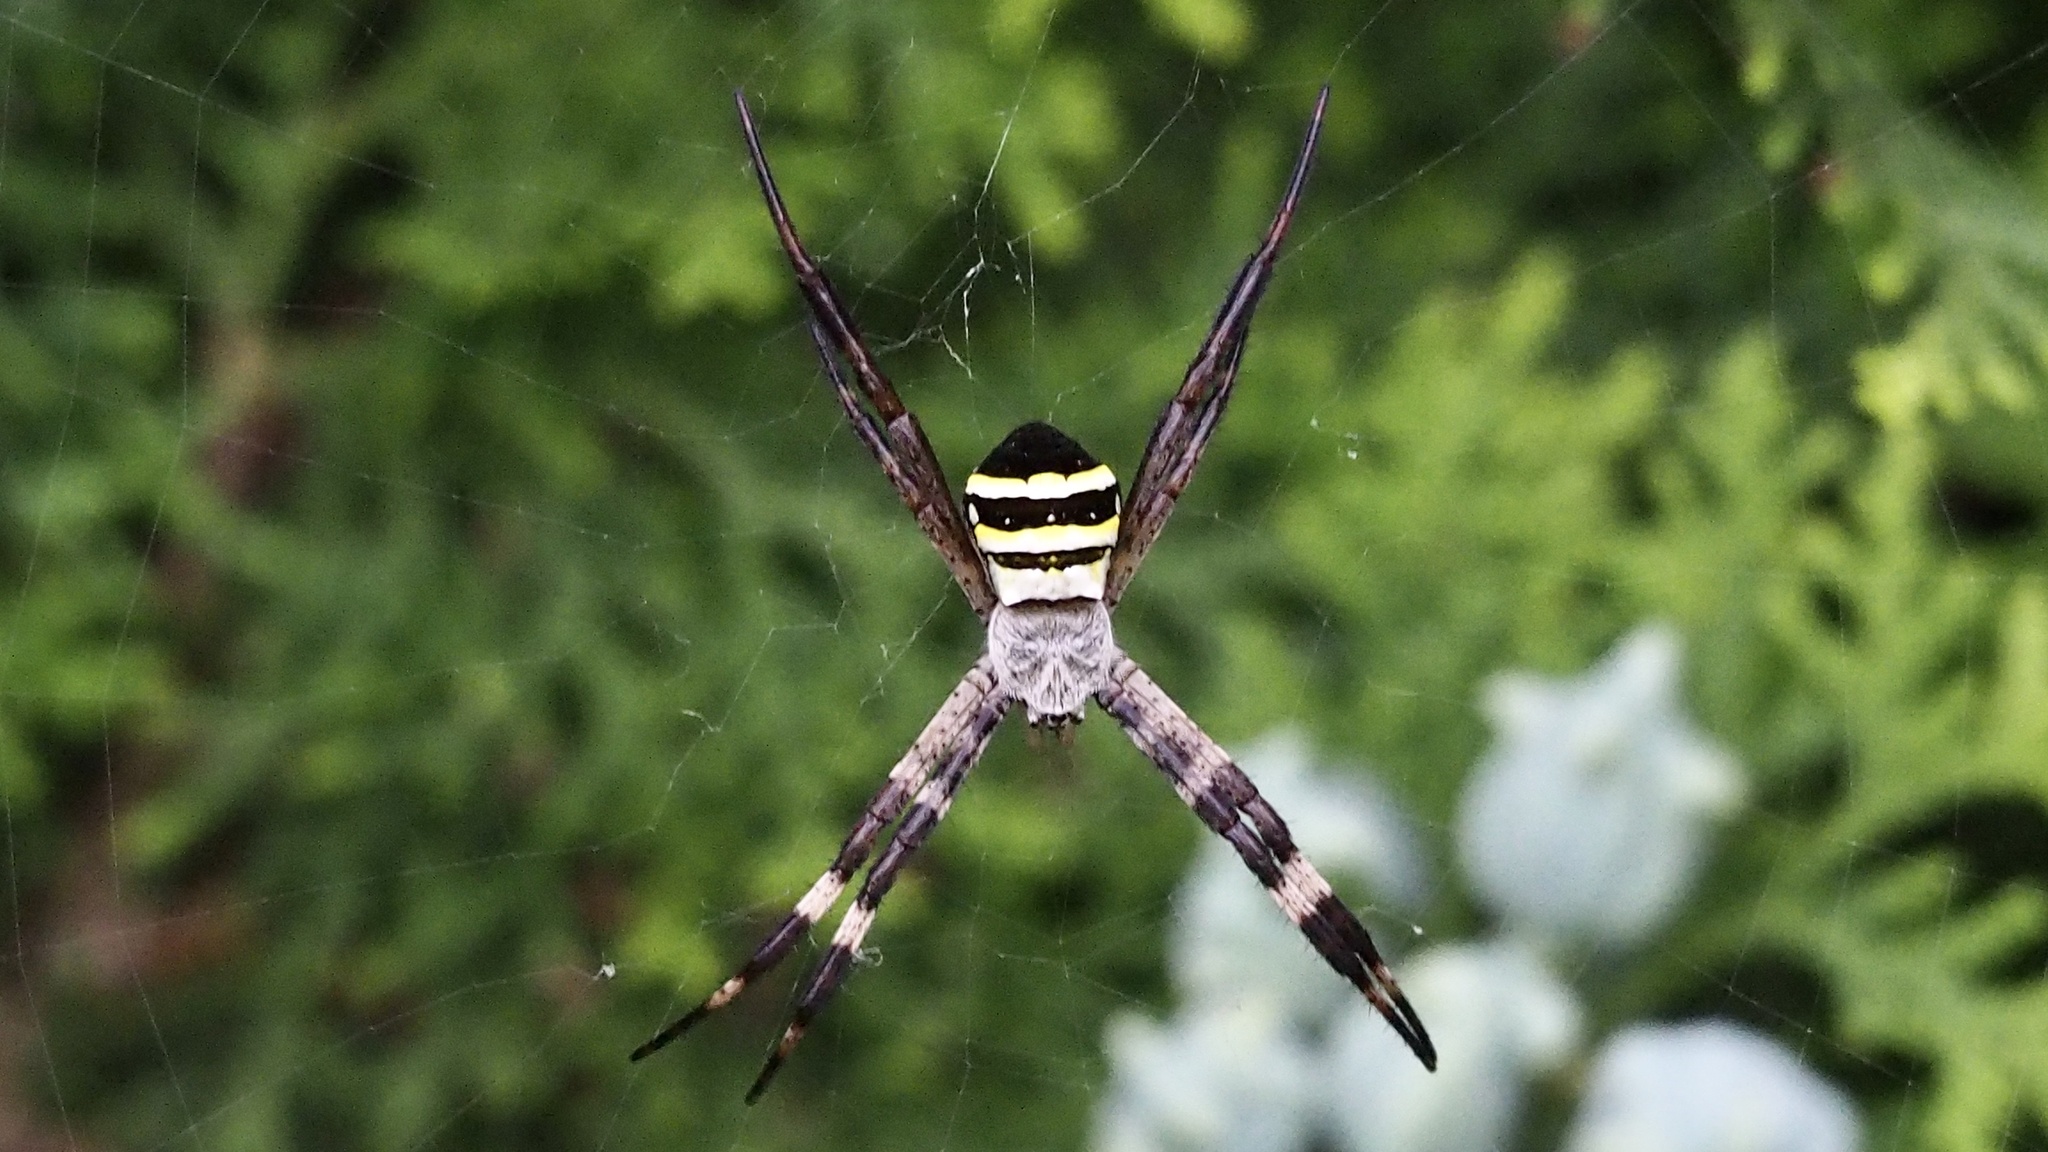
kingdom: Animalia
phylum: Arthropoda
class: Arachnida
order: Araneae
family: Araneidae
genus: Argiope
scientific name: Argiope amoena
